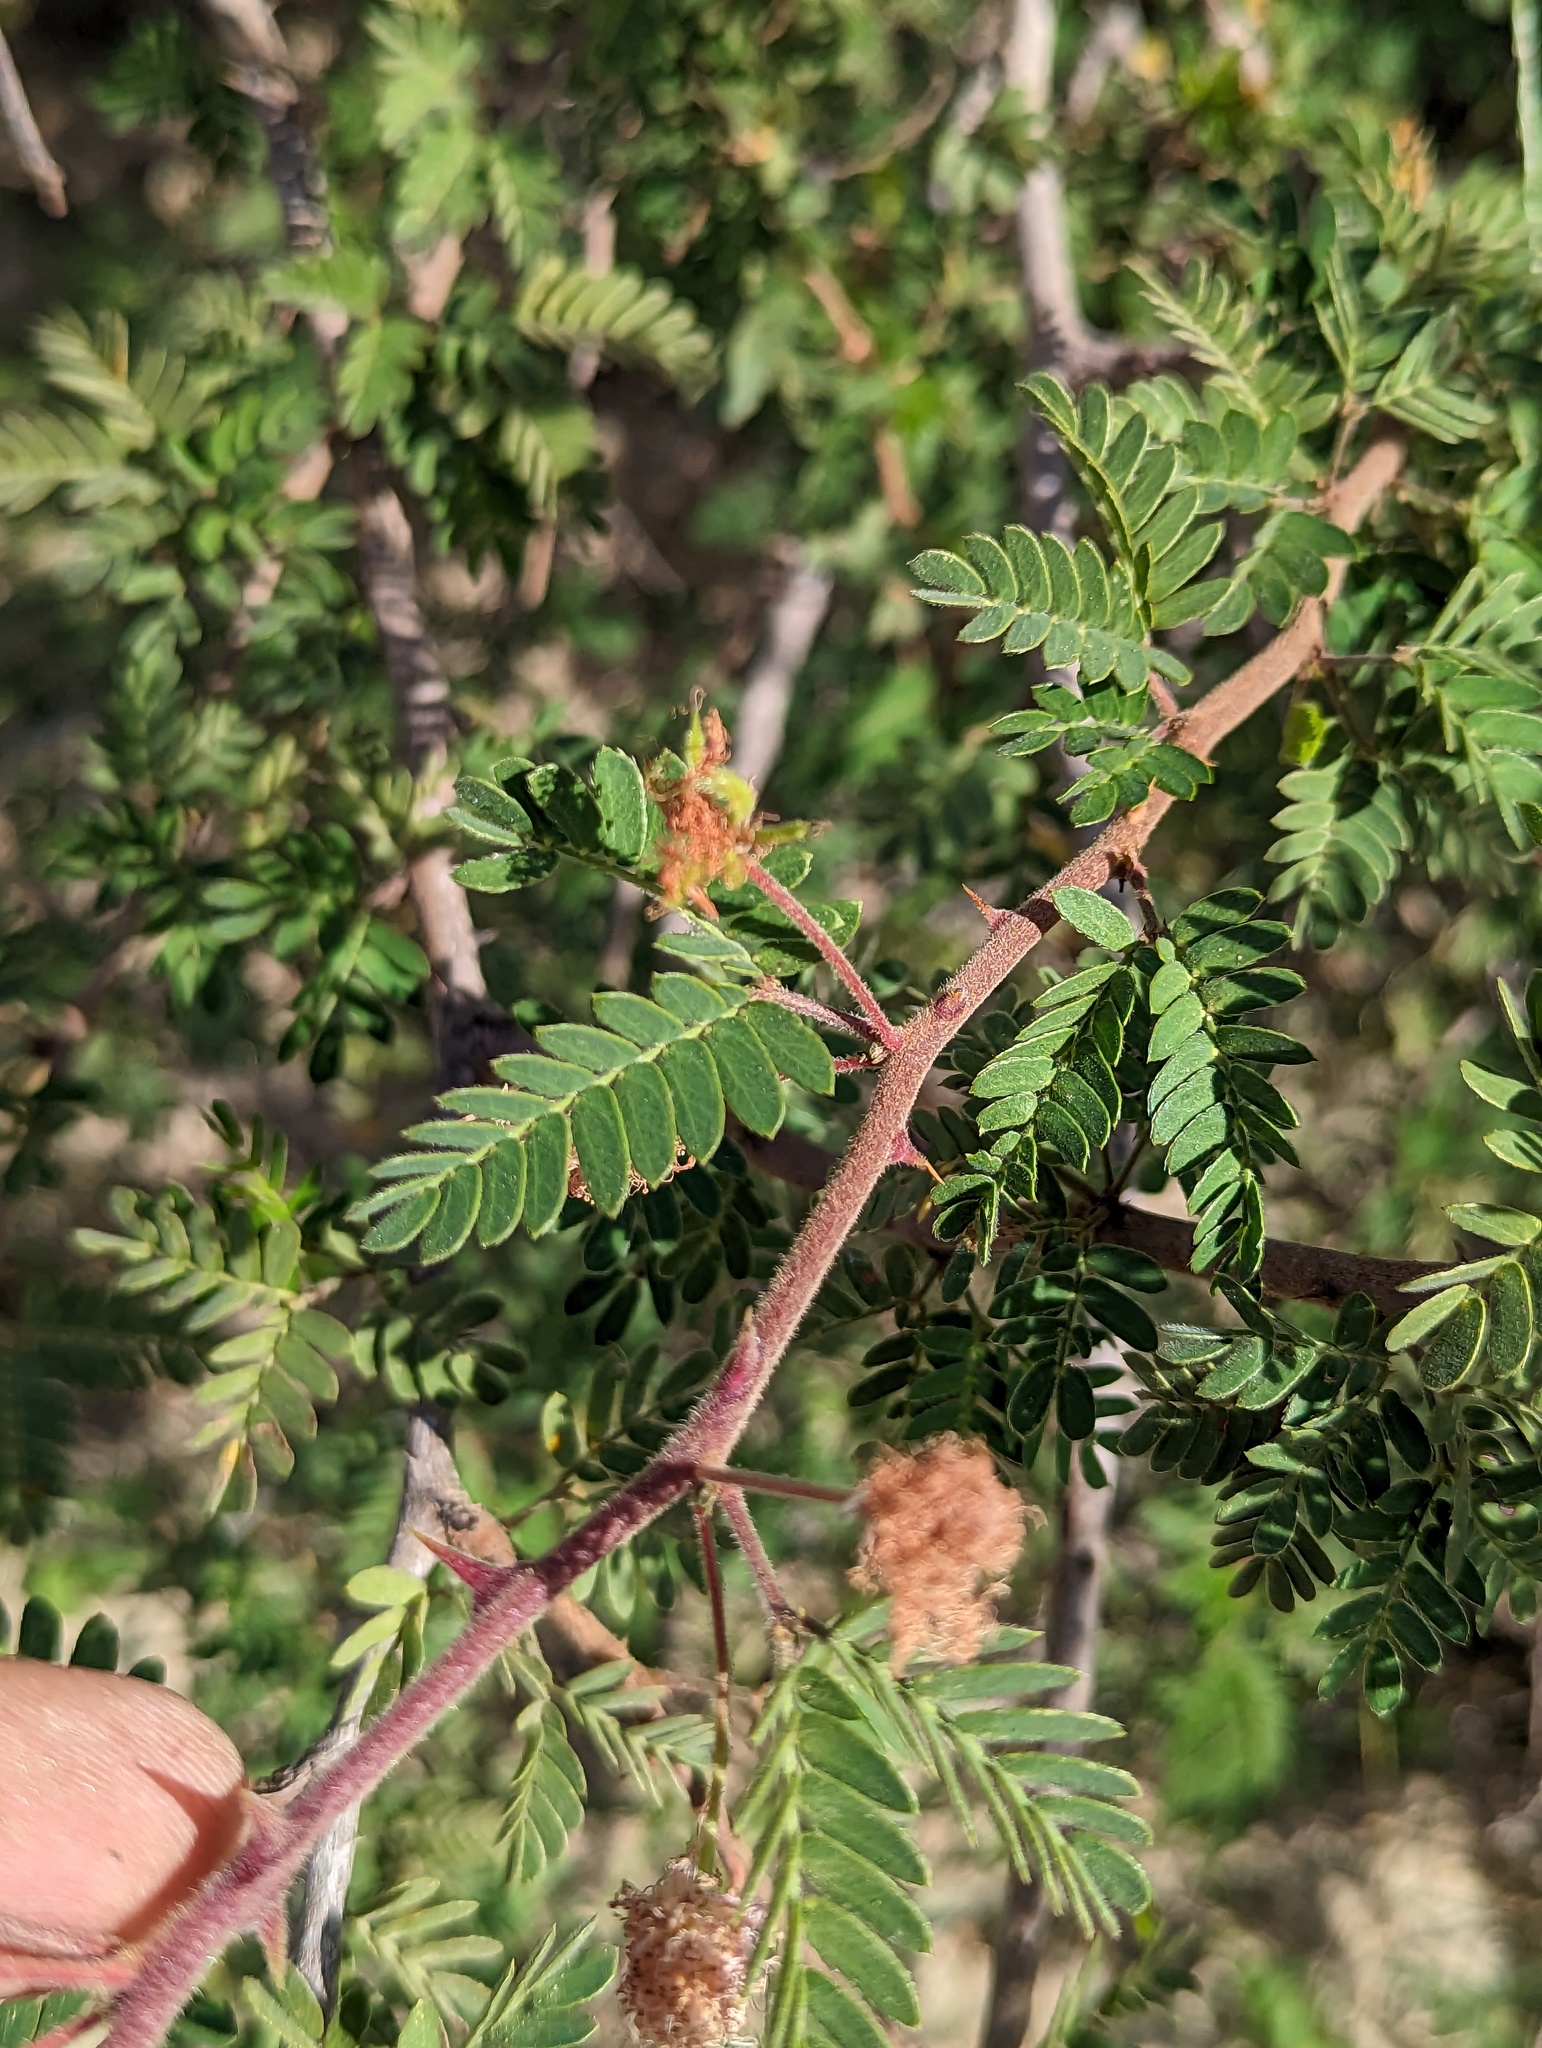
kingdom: Plantae
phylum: Tracheophyta
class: Magnoliopsida
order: Fabales
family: Fabaceae
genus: Mimosa
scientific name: Mimosa tricephala
